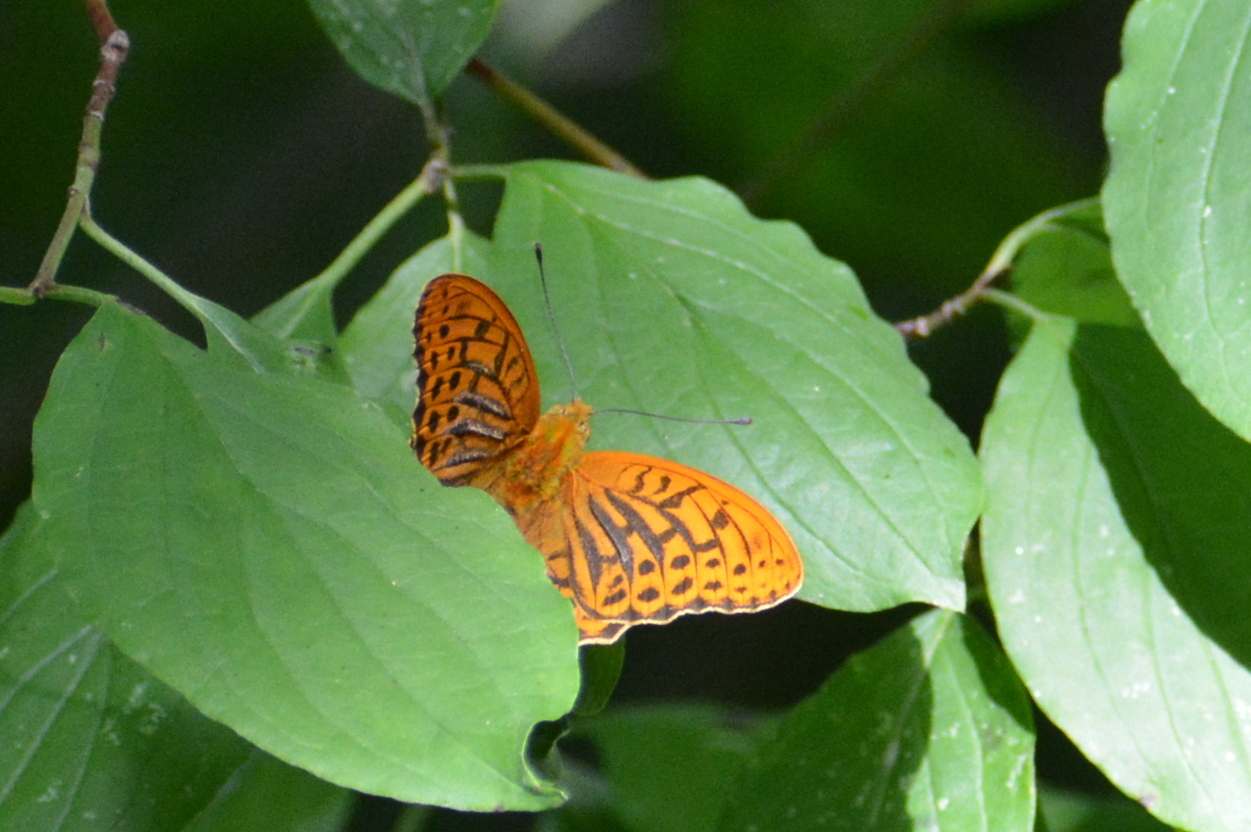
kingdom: Animalia
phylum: Arthropoda
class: Insecta
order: Lepidoptera
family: Nymphalidae
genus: Argynnis
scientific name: Argynnis paphia
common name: Silver-washed fritillary
